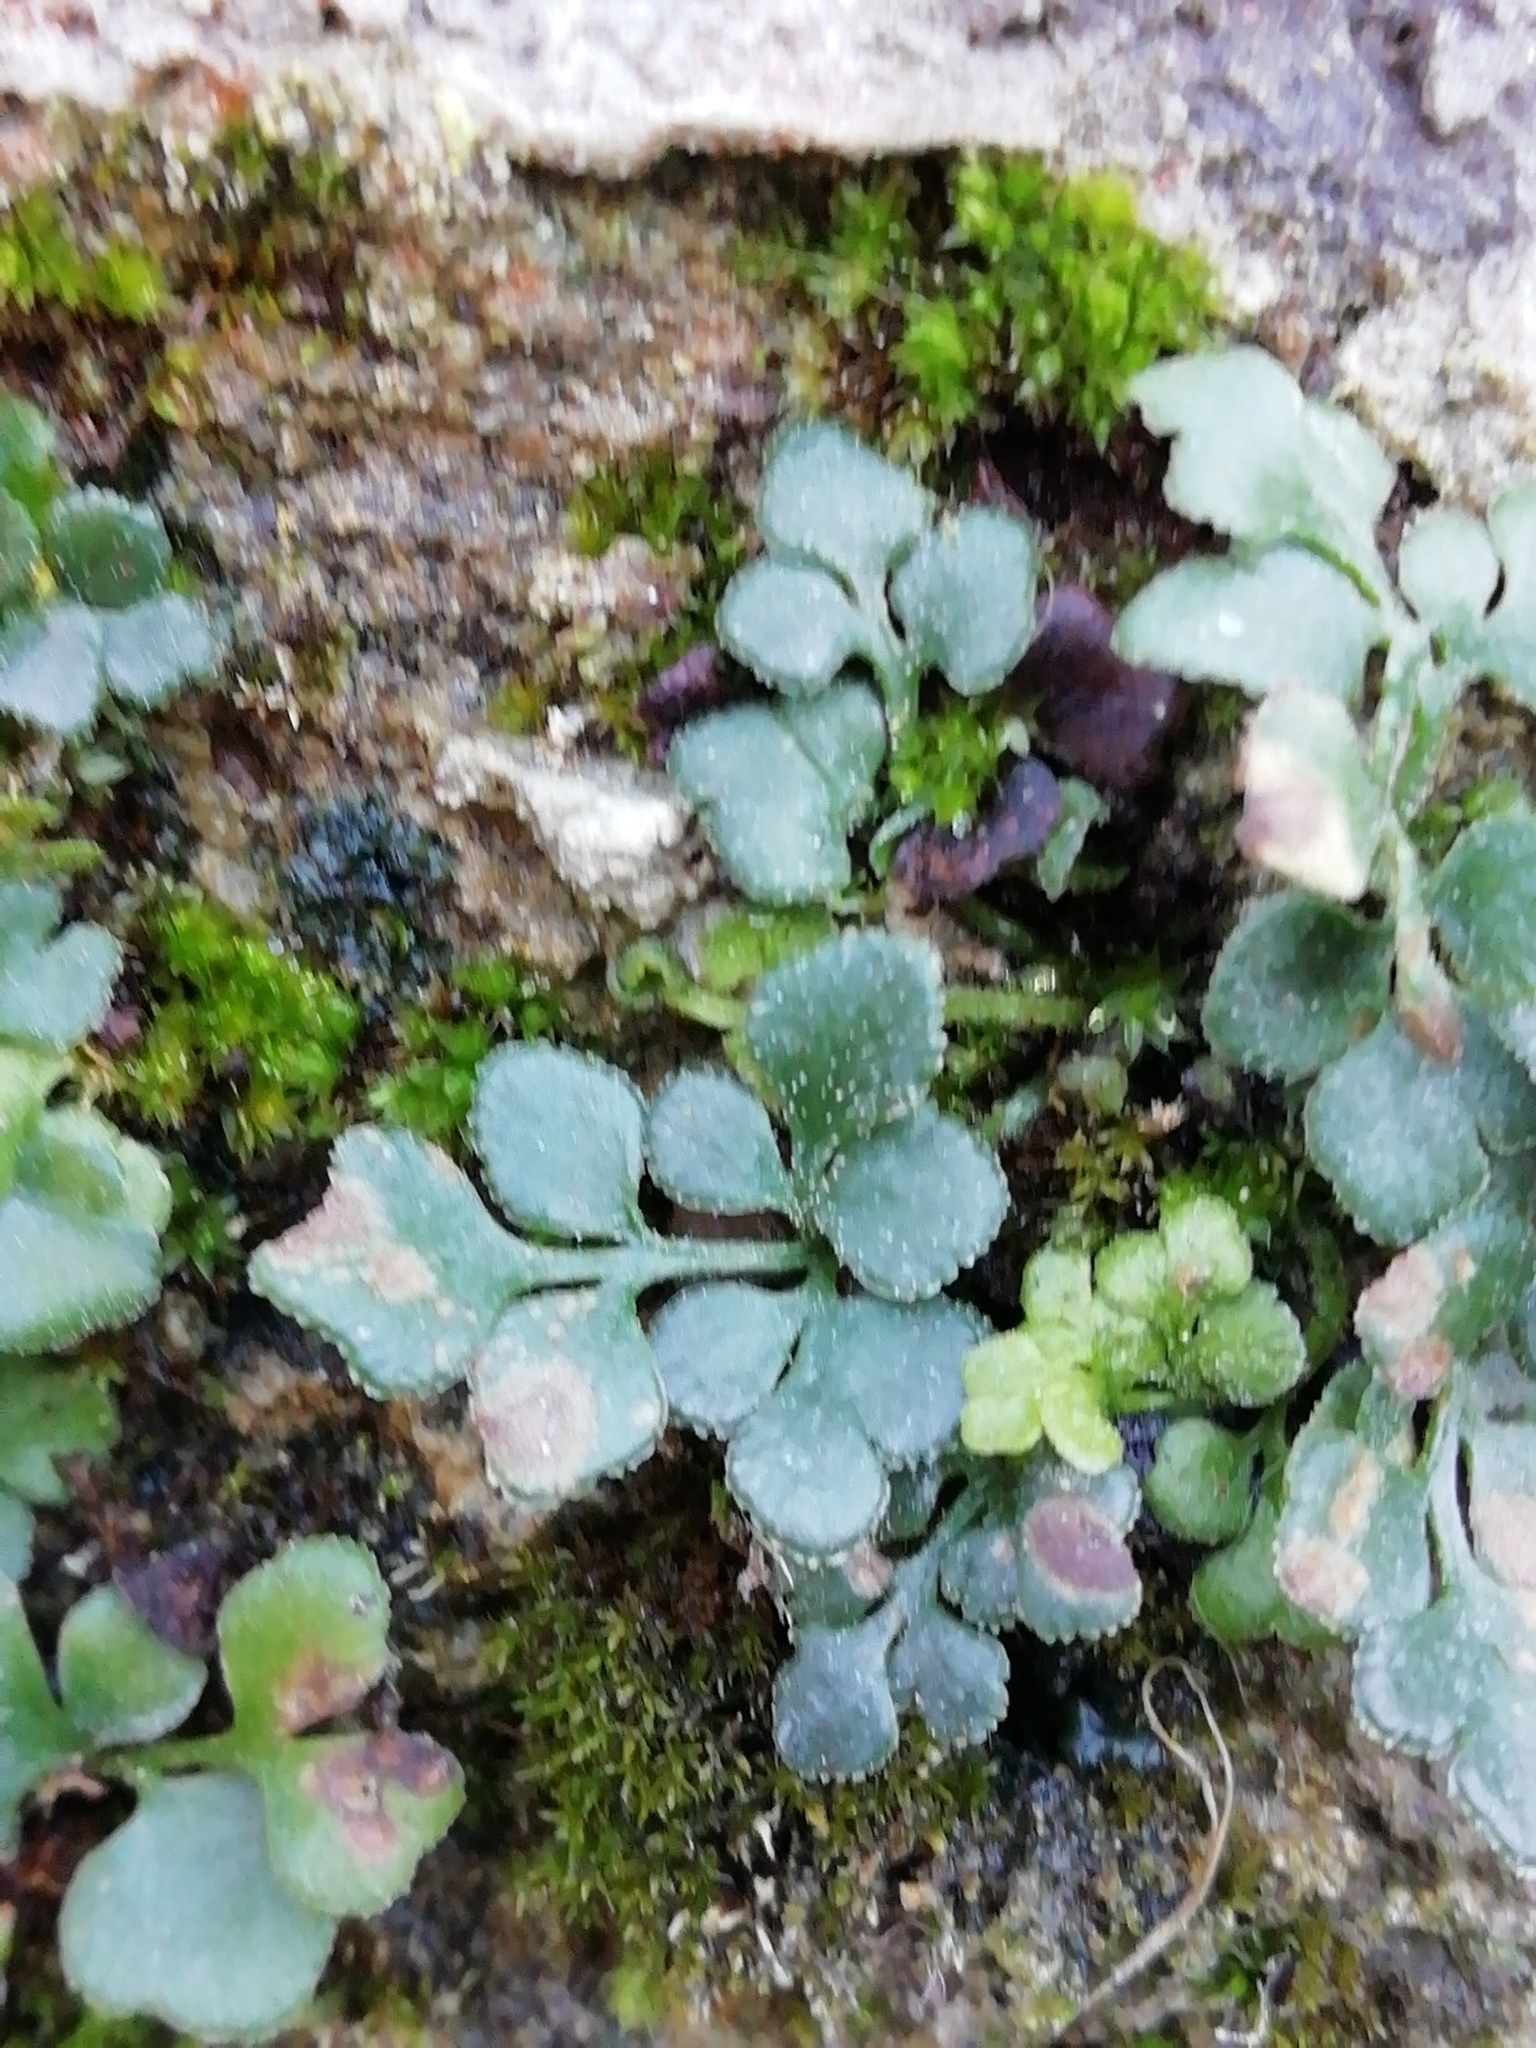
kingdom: Plantae
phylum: Tracheophyta
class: Polypodiopsida
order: Polypodiales
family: Aspleniaceae
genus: Asplenium
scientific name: Asplenium ruta-muraria
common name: Wall-rue
